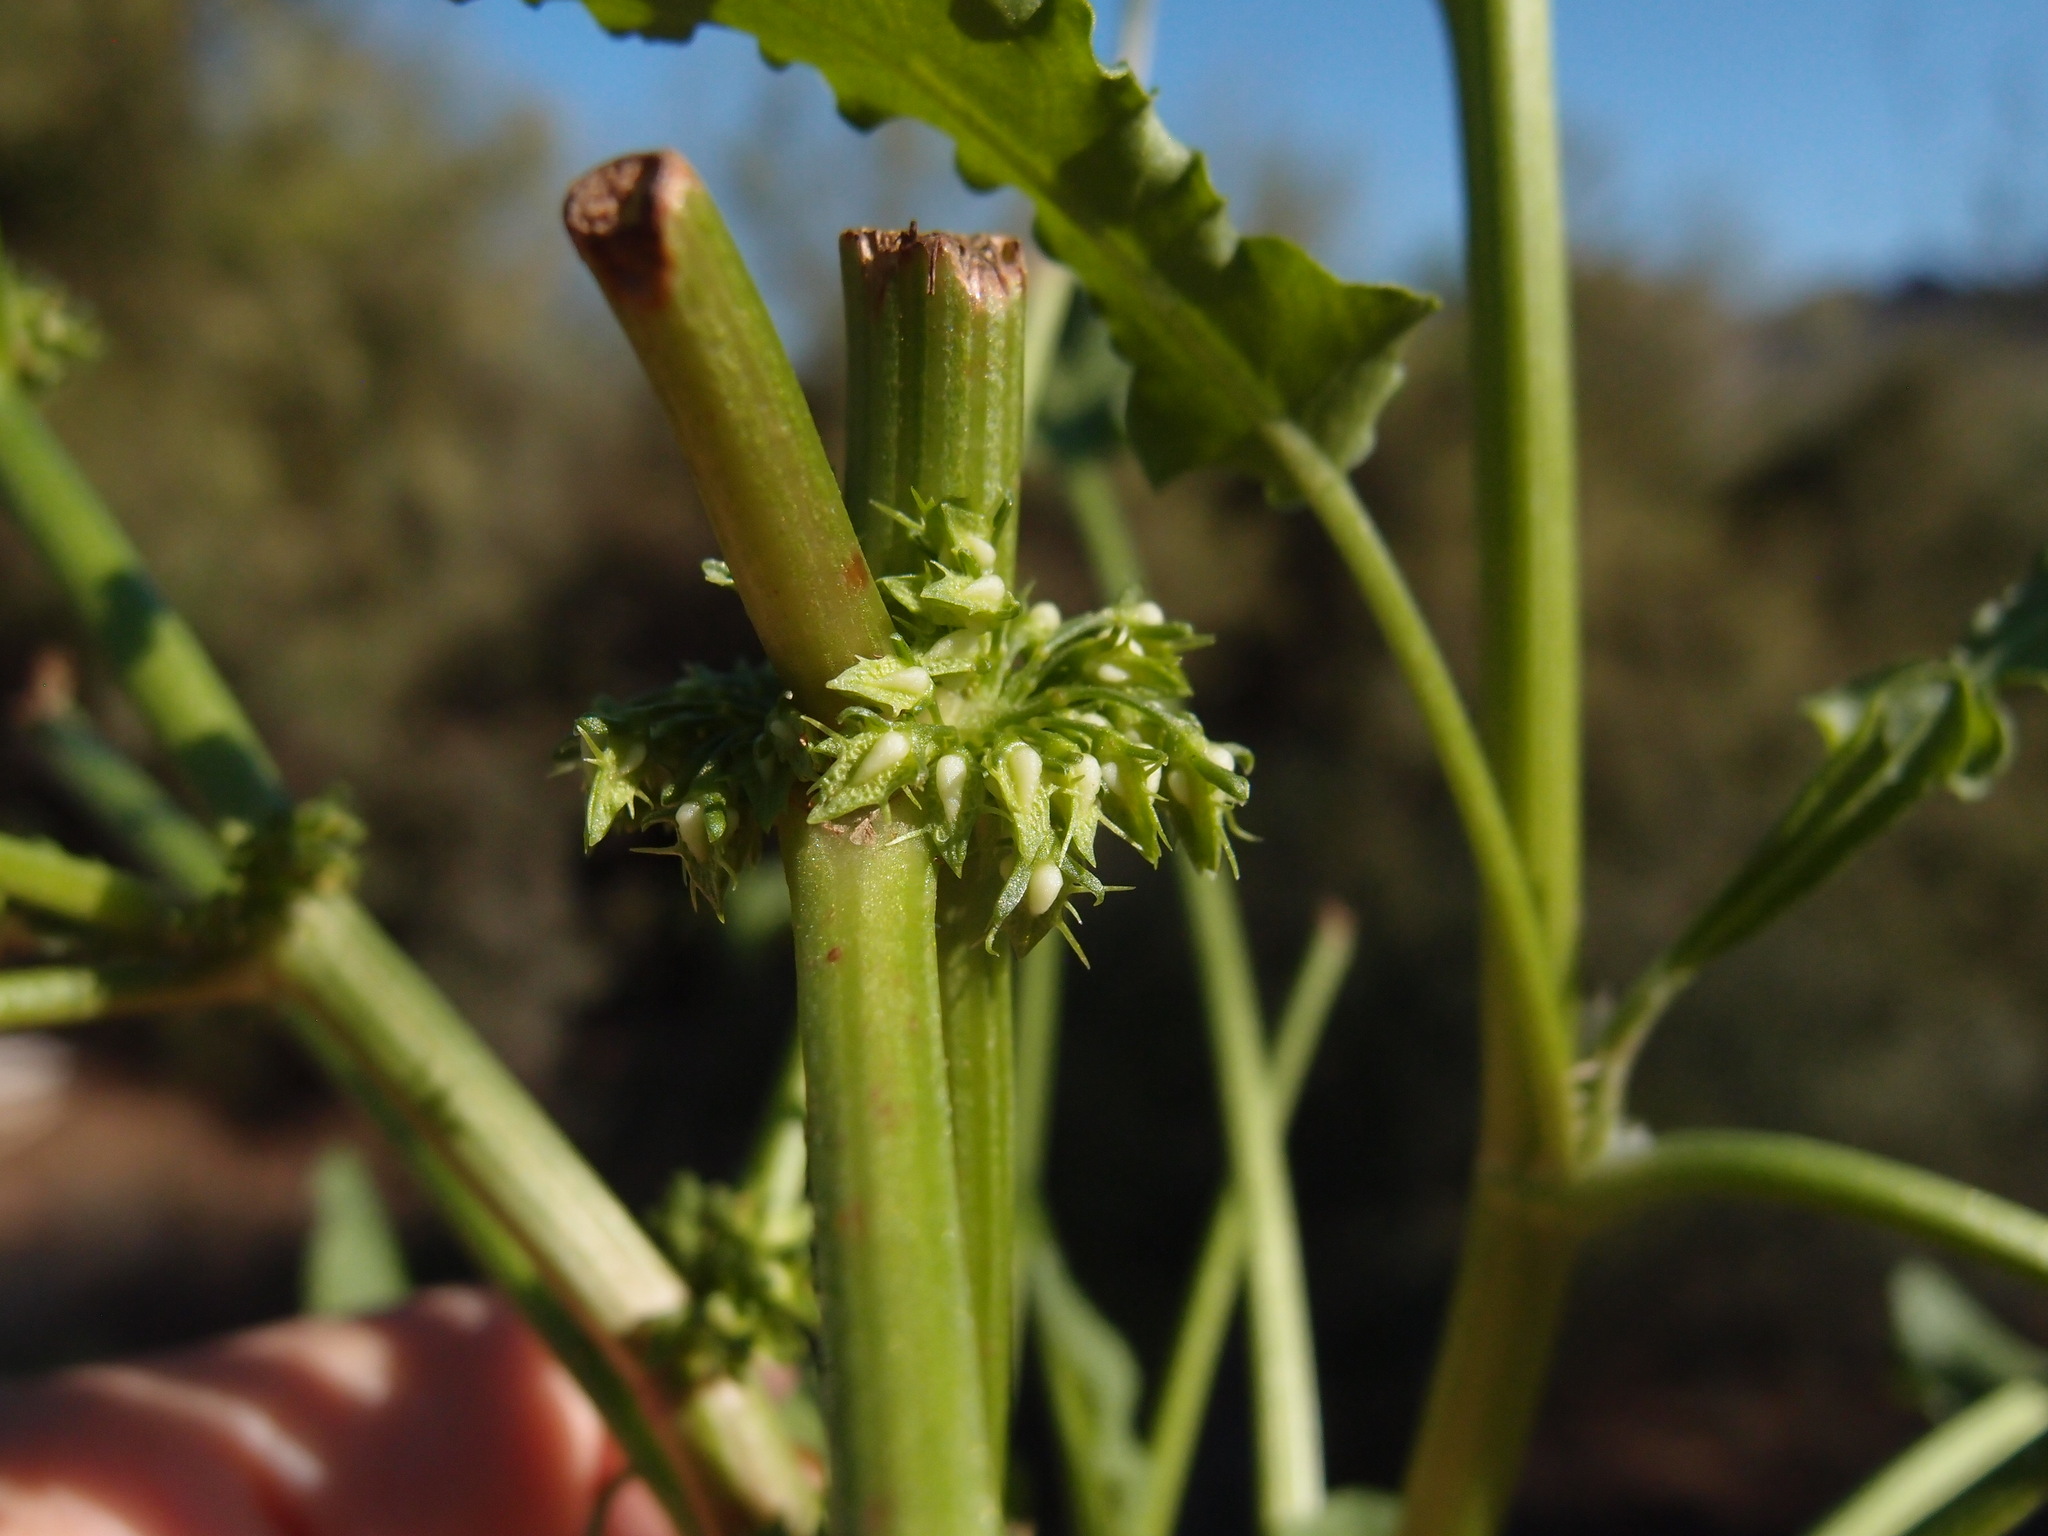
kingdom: Plantae
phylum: Tracheophyta
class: Magnoliopsida
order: Caryophyllales
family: Polygonaceae
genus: Rumex
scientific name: Rumex inconspicuus
